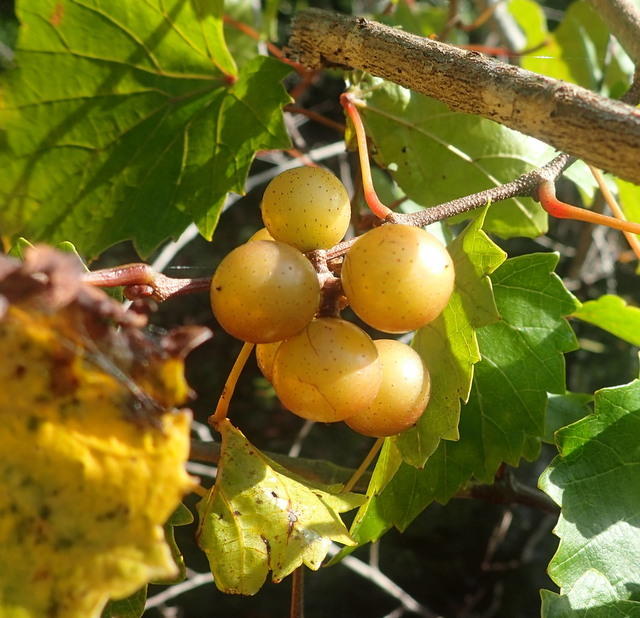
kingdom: Plantae
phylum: Tracheophyta
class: Magnoliopsida
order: Vitales
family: Vitaceae
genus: Vitis
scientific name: Vitis rotundifolia
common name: Muscadine grape
